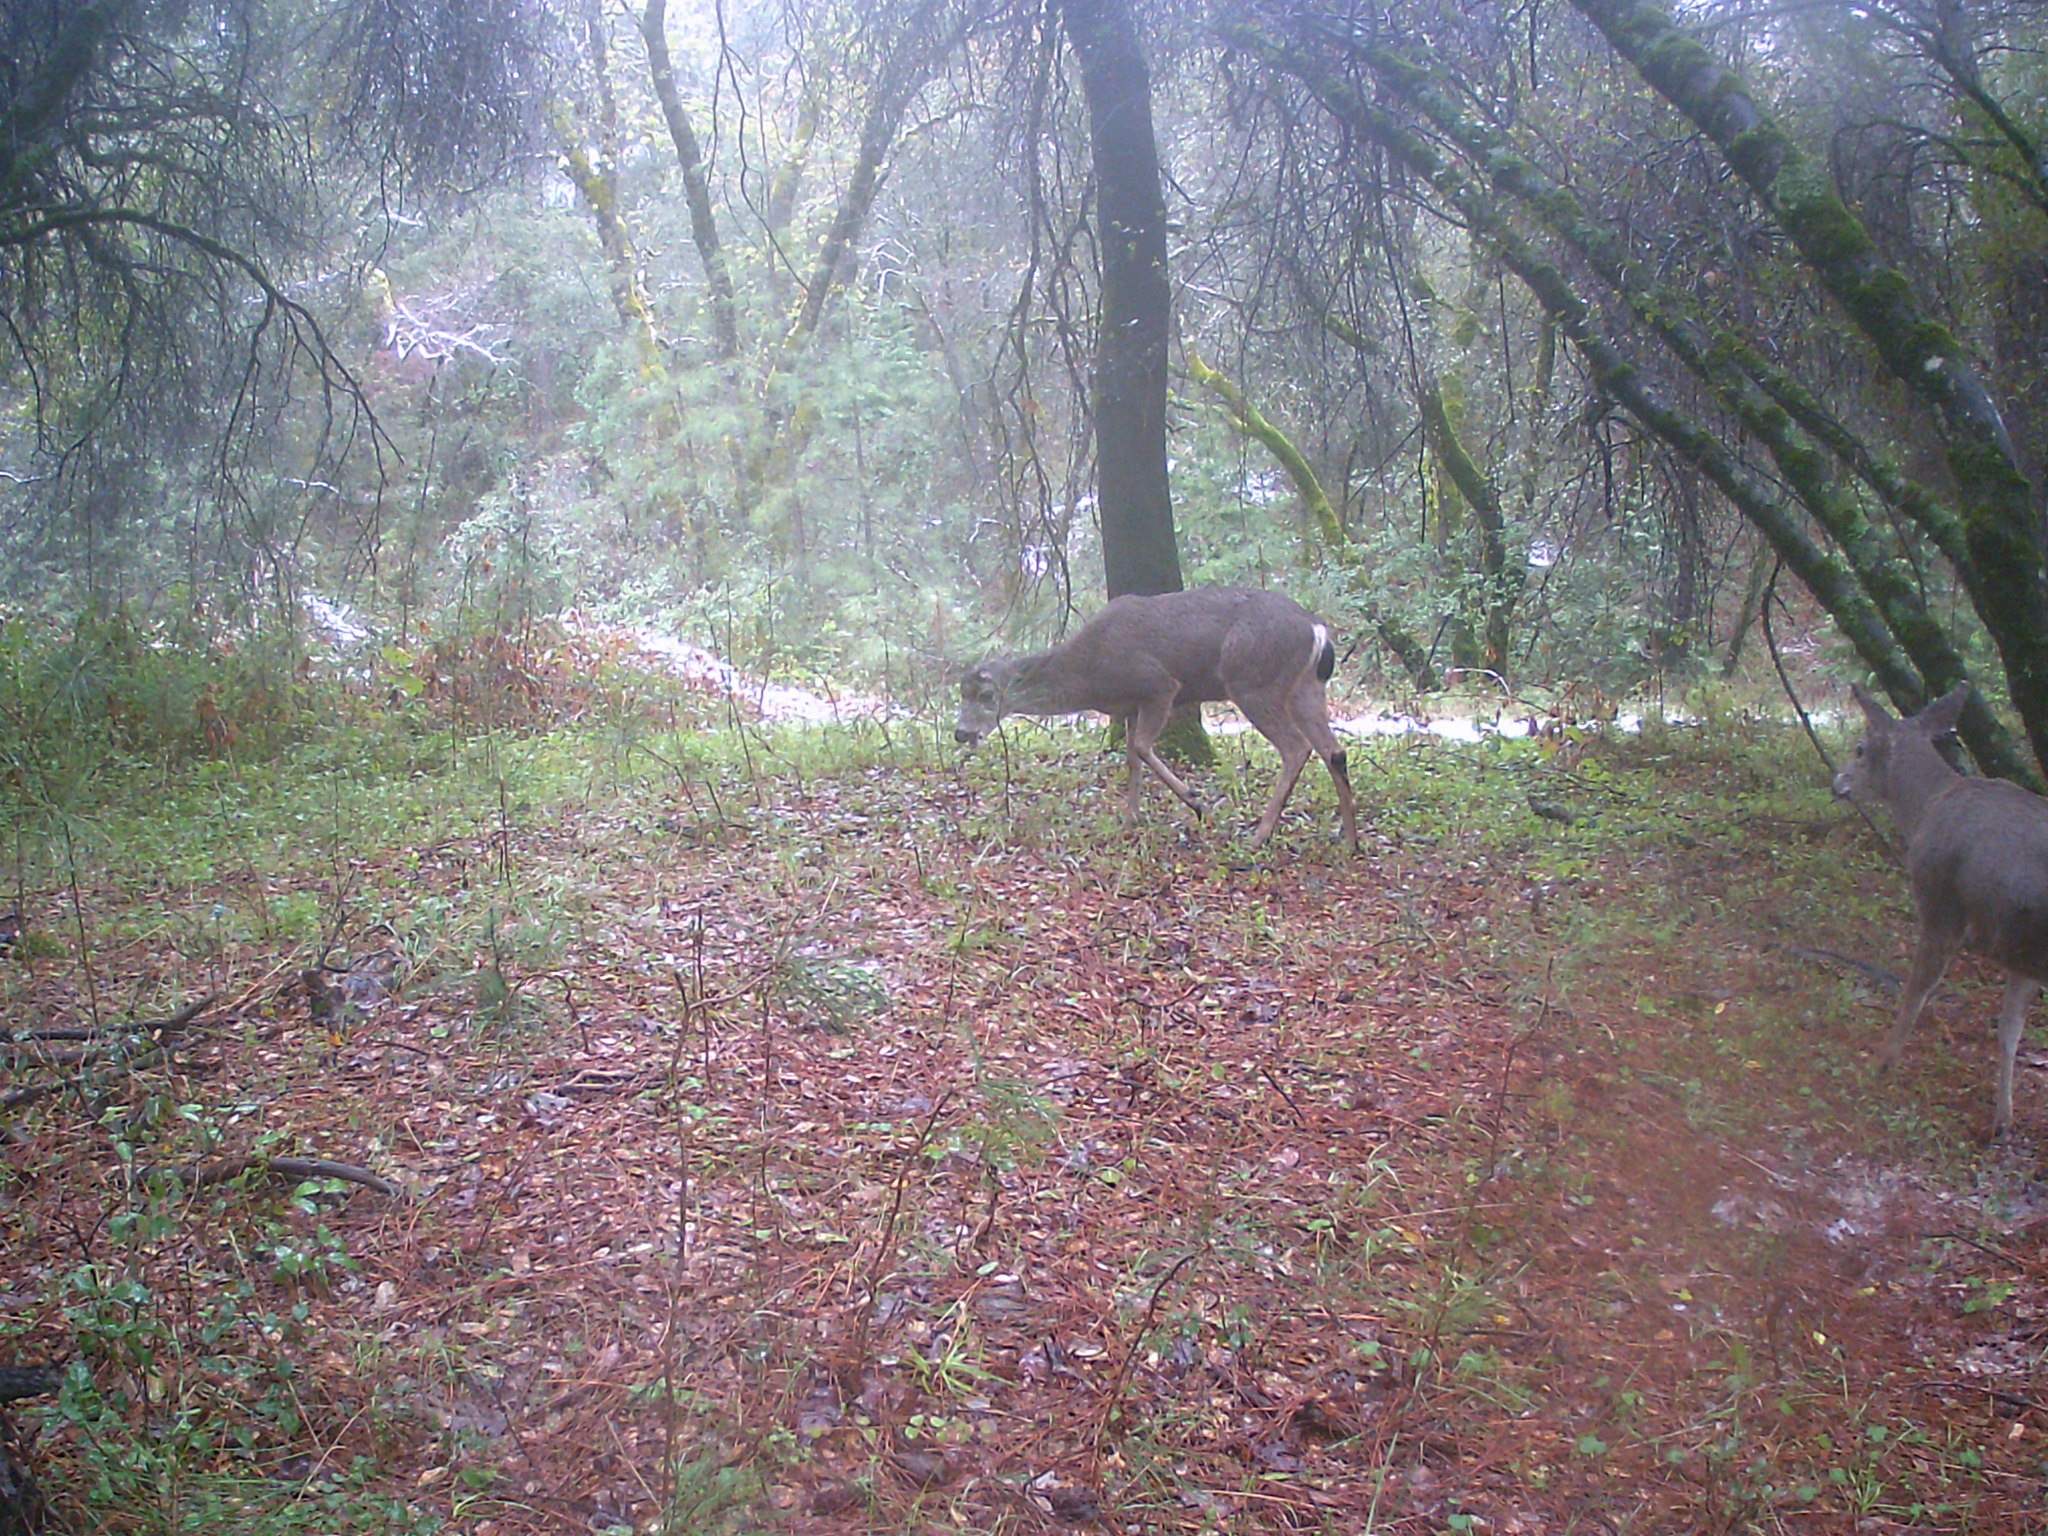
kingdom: Animalia
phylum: Chordata
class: Mammalia
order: Artiodactyla
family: Cervidae
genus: Odocoileus
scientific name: Odocoileus hemionus
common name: Mule deer
